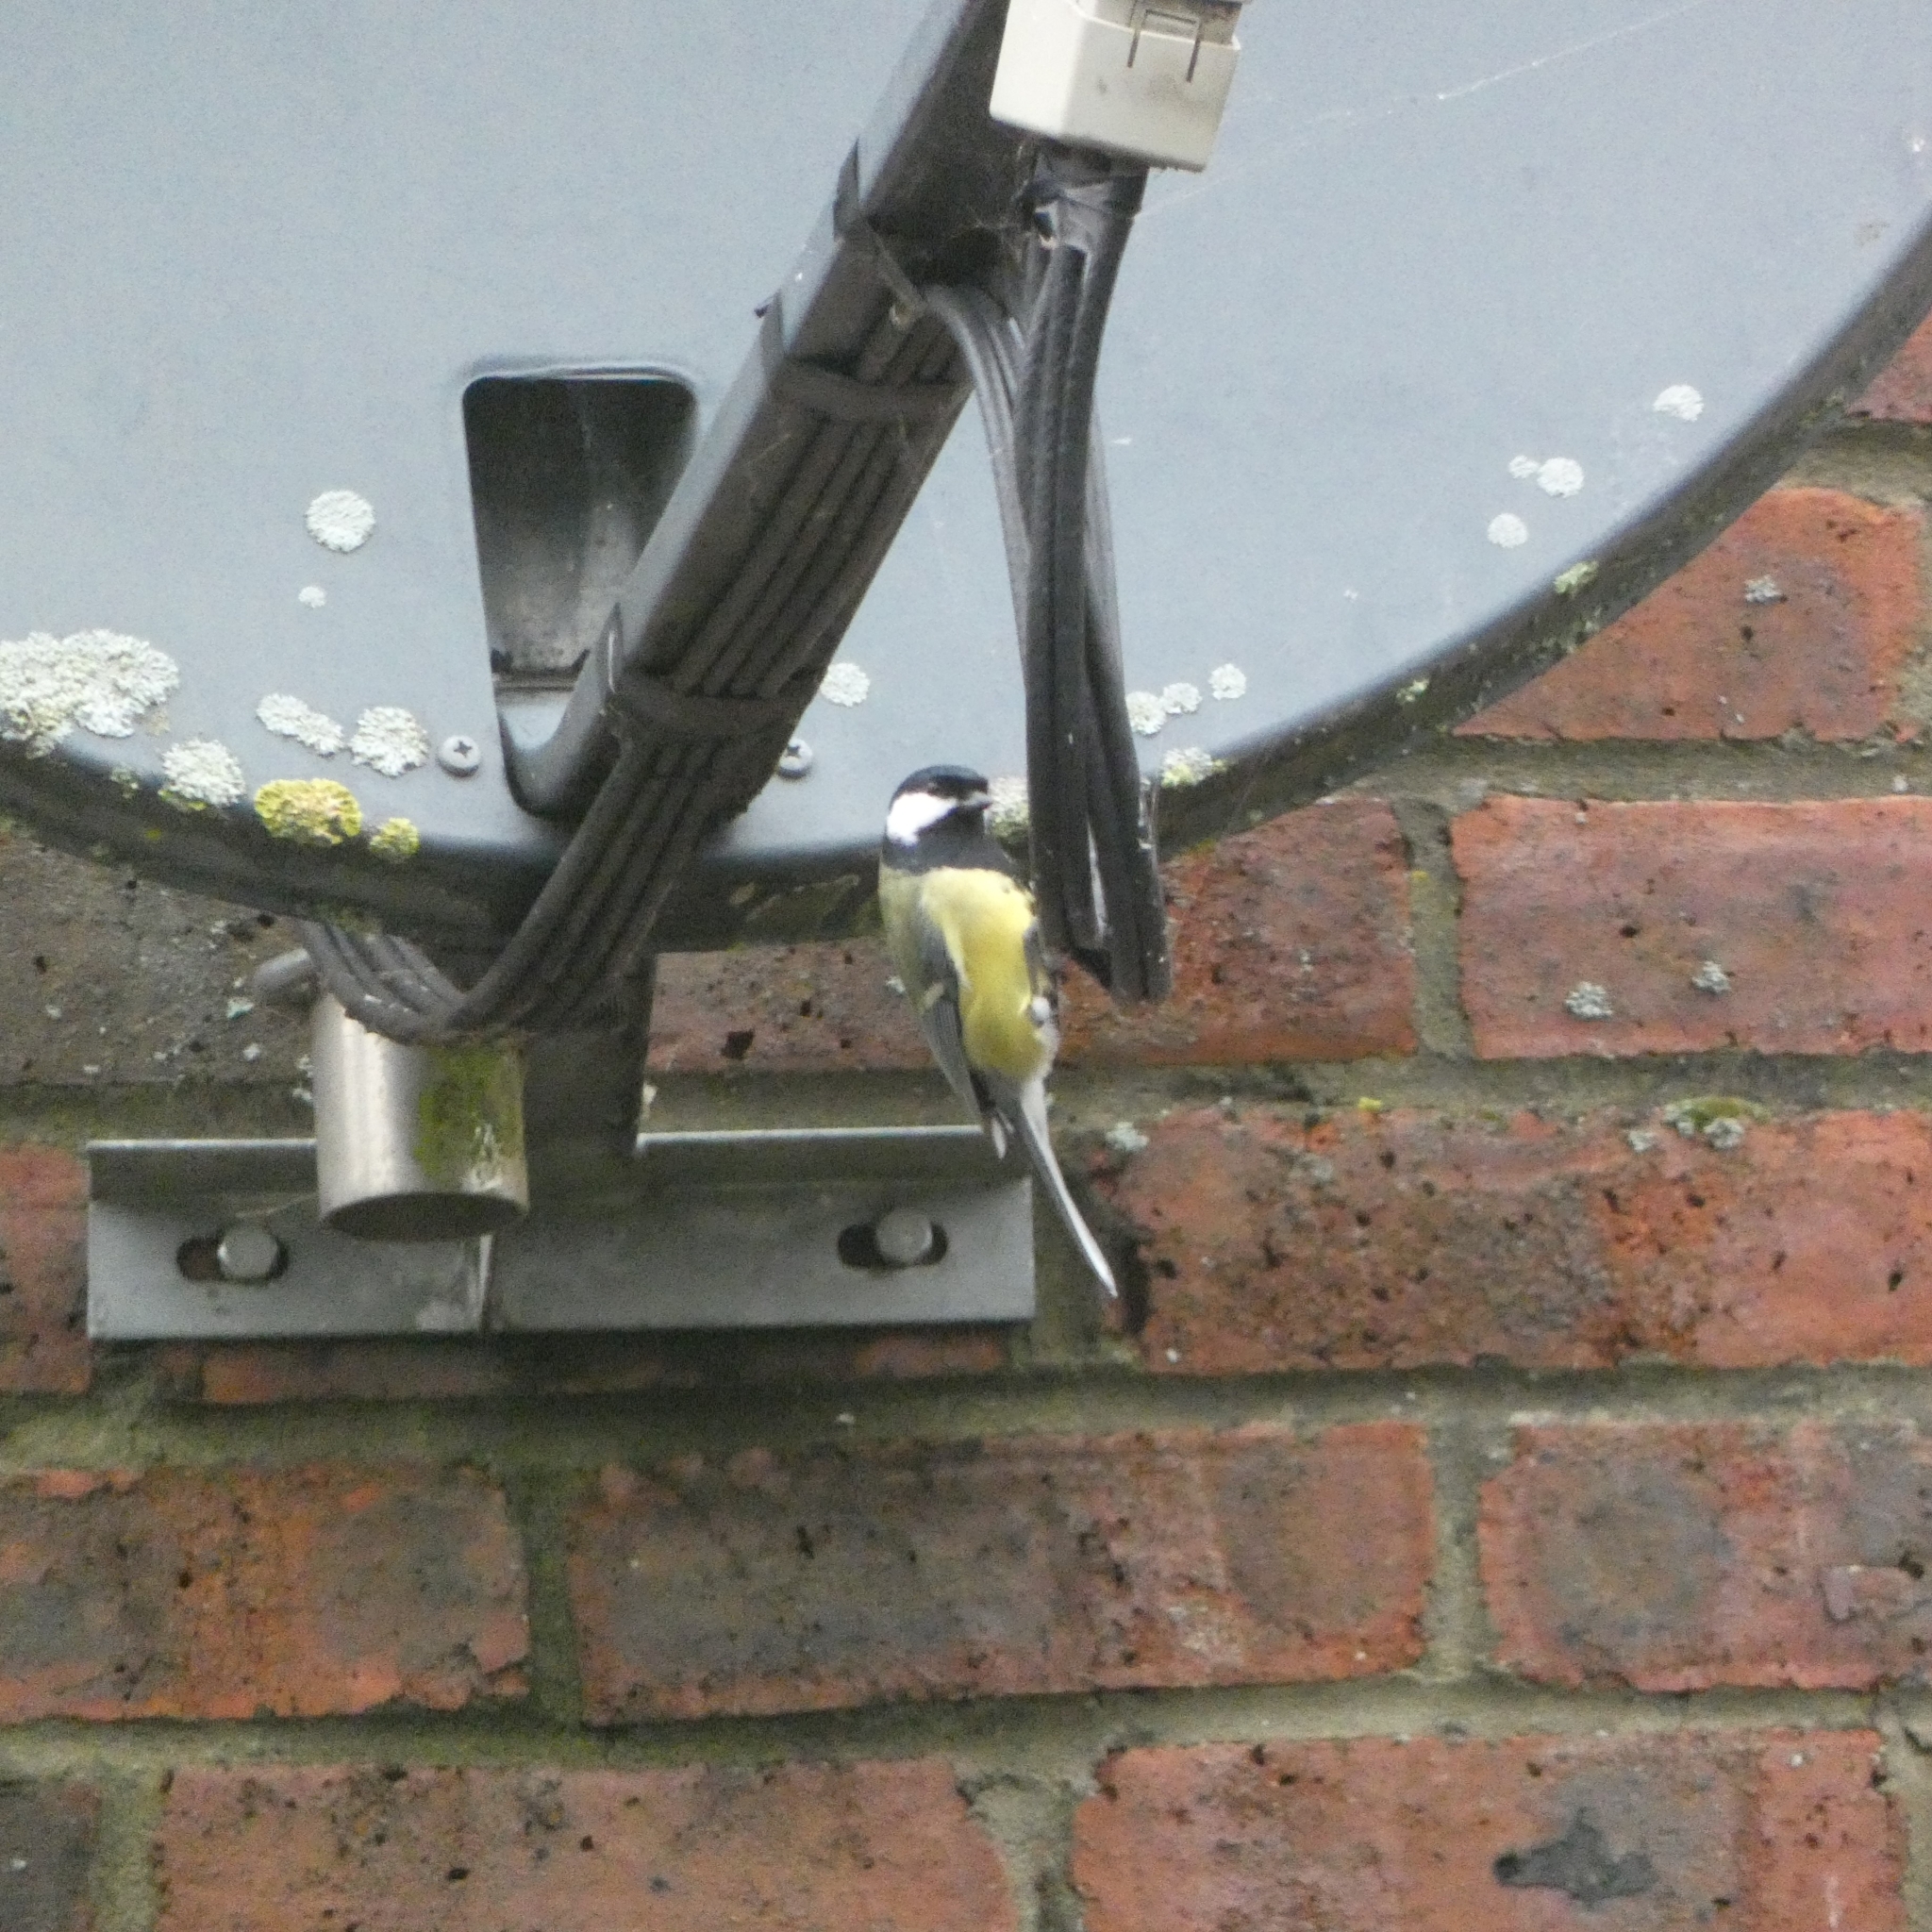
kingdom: Animalia
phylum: Chordata
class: Aves
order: Passeriformes
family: Paridae
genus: Parus
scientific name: Parus major
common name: Great tit
